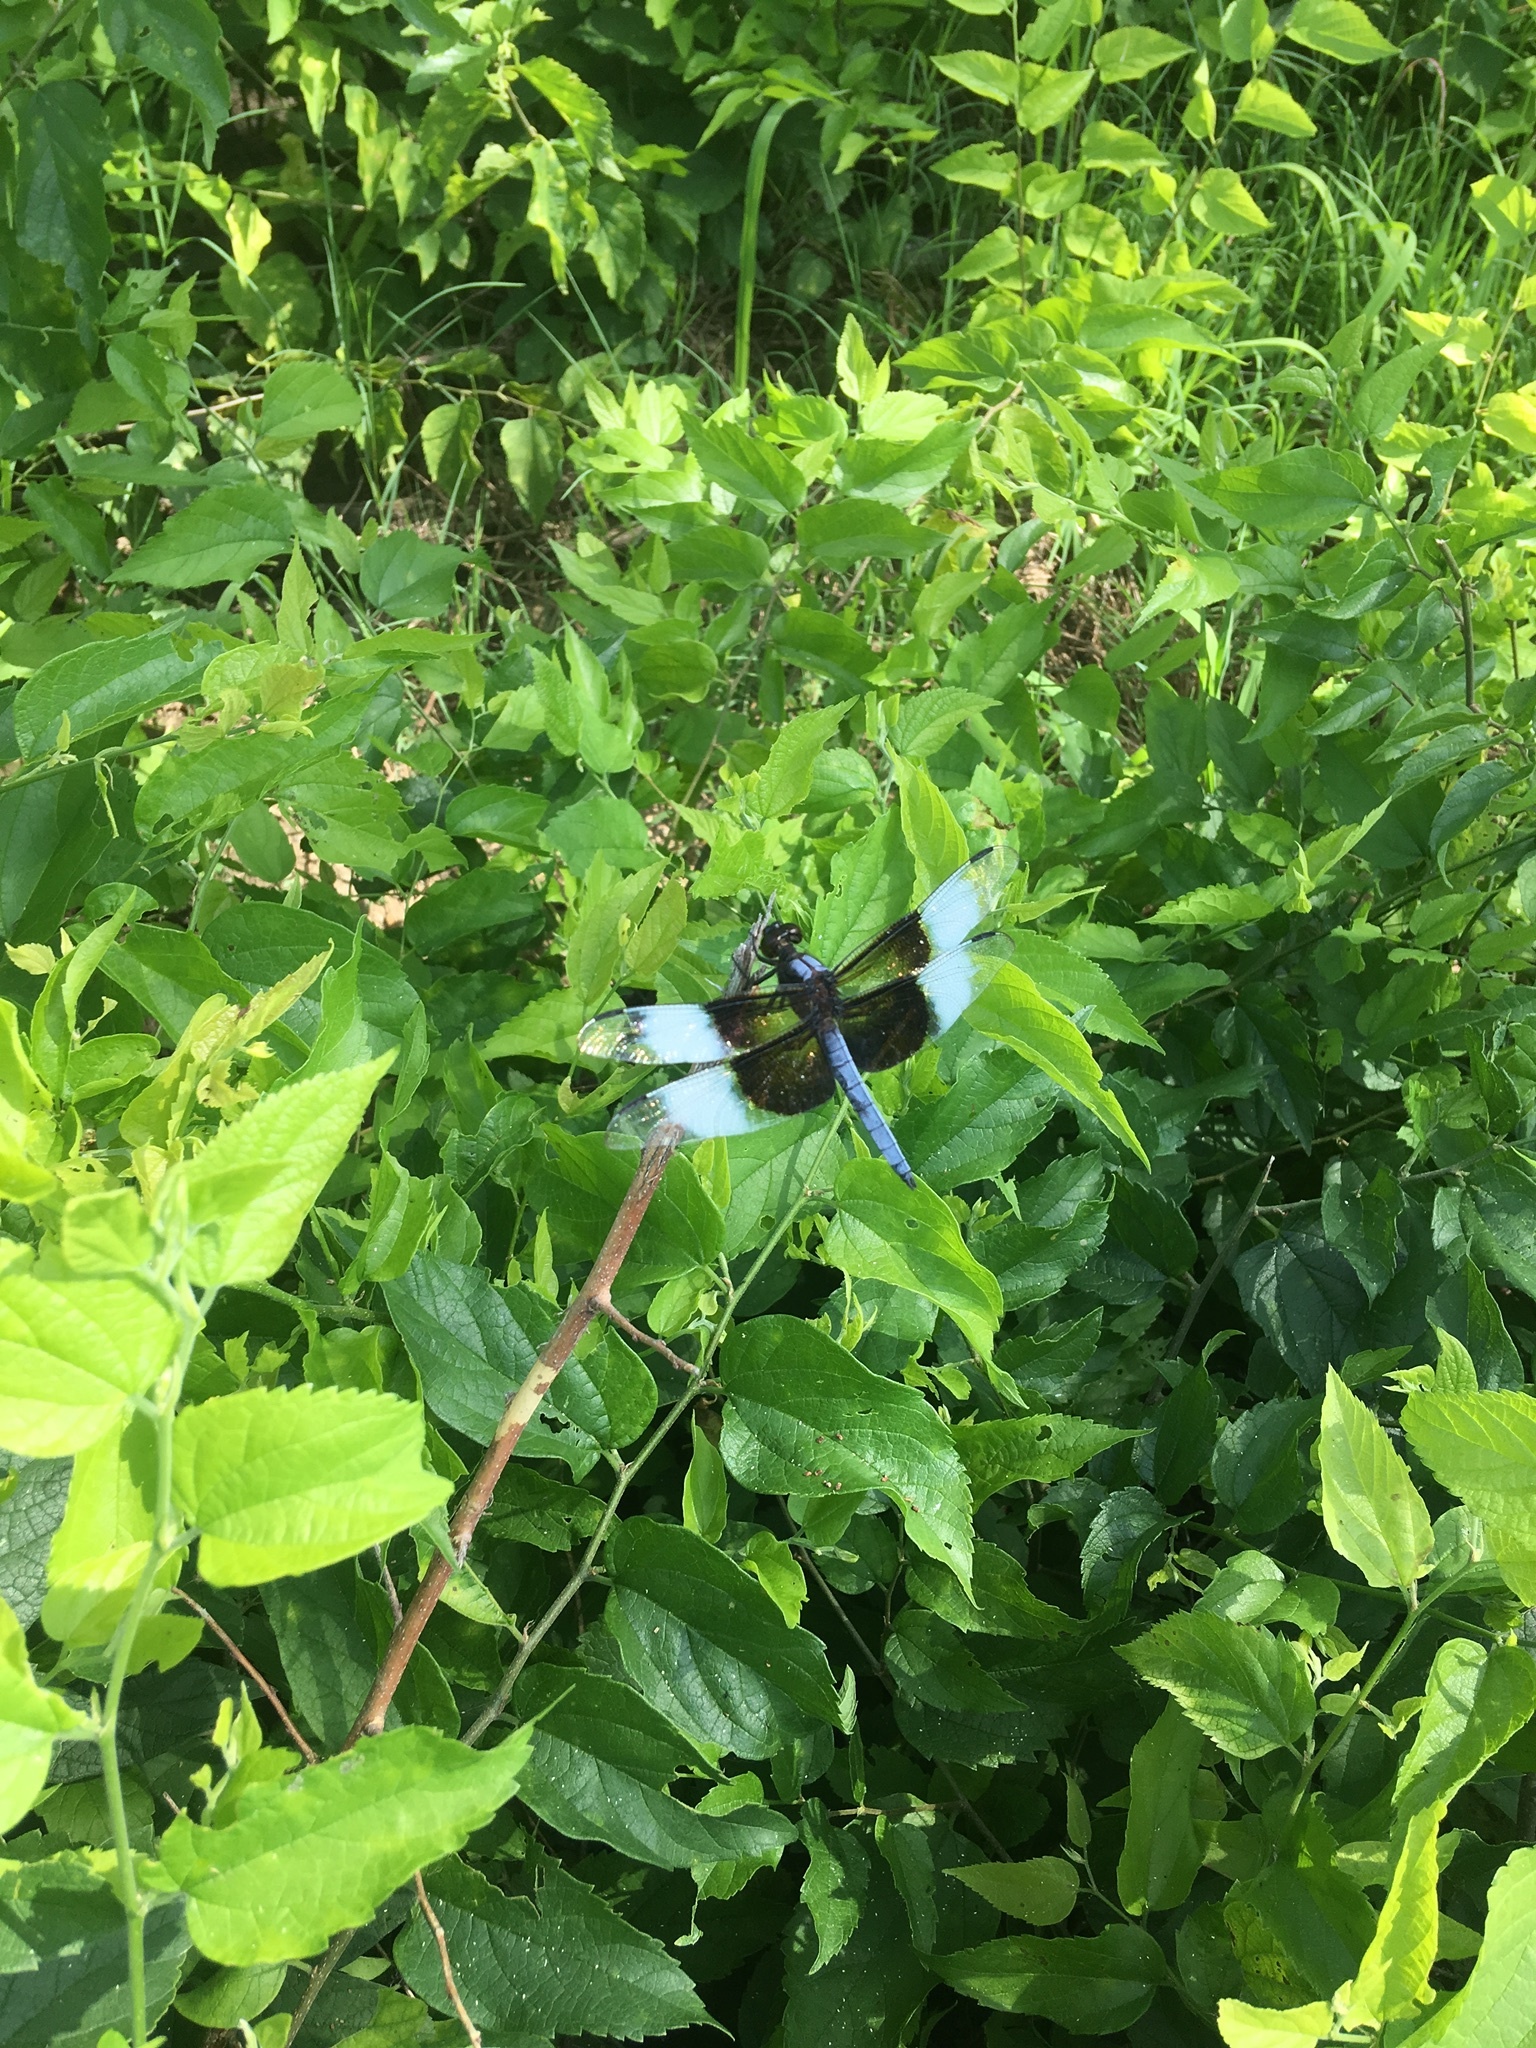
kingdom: Animalia
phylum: Arthropoda
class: Insecta
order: Odonata
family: Libellulidae
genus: Libellula
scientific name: Libellula luctuosa
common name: Widow skimmer
